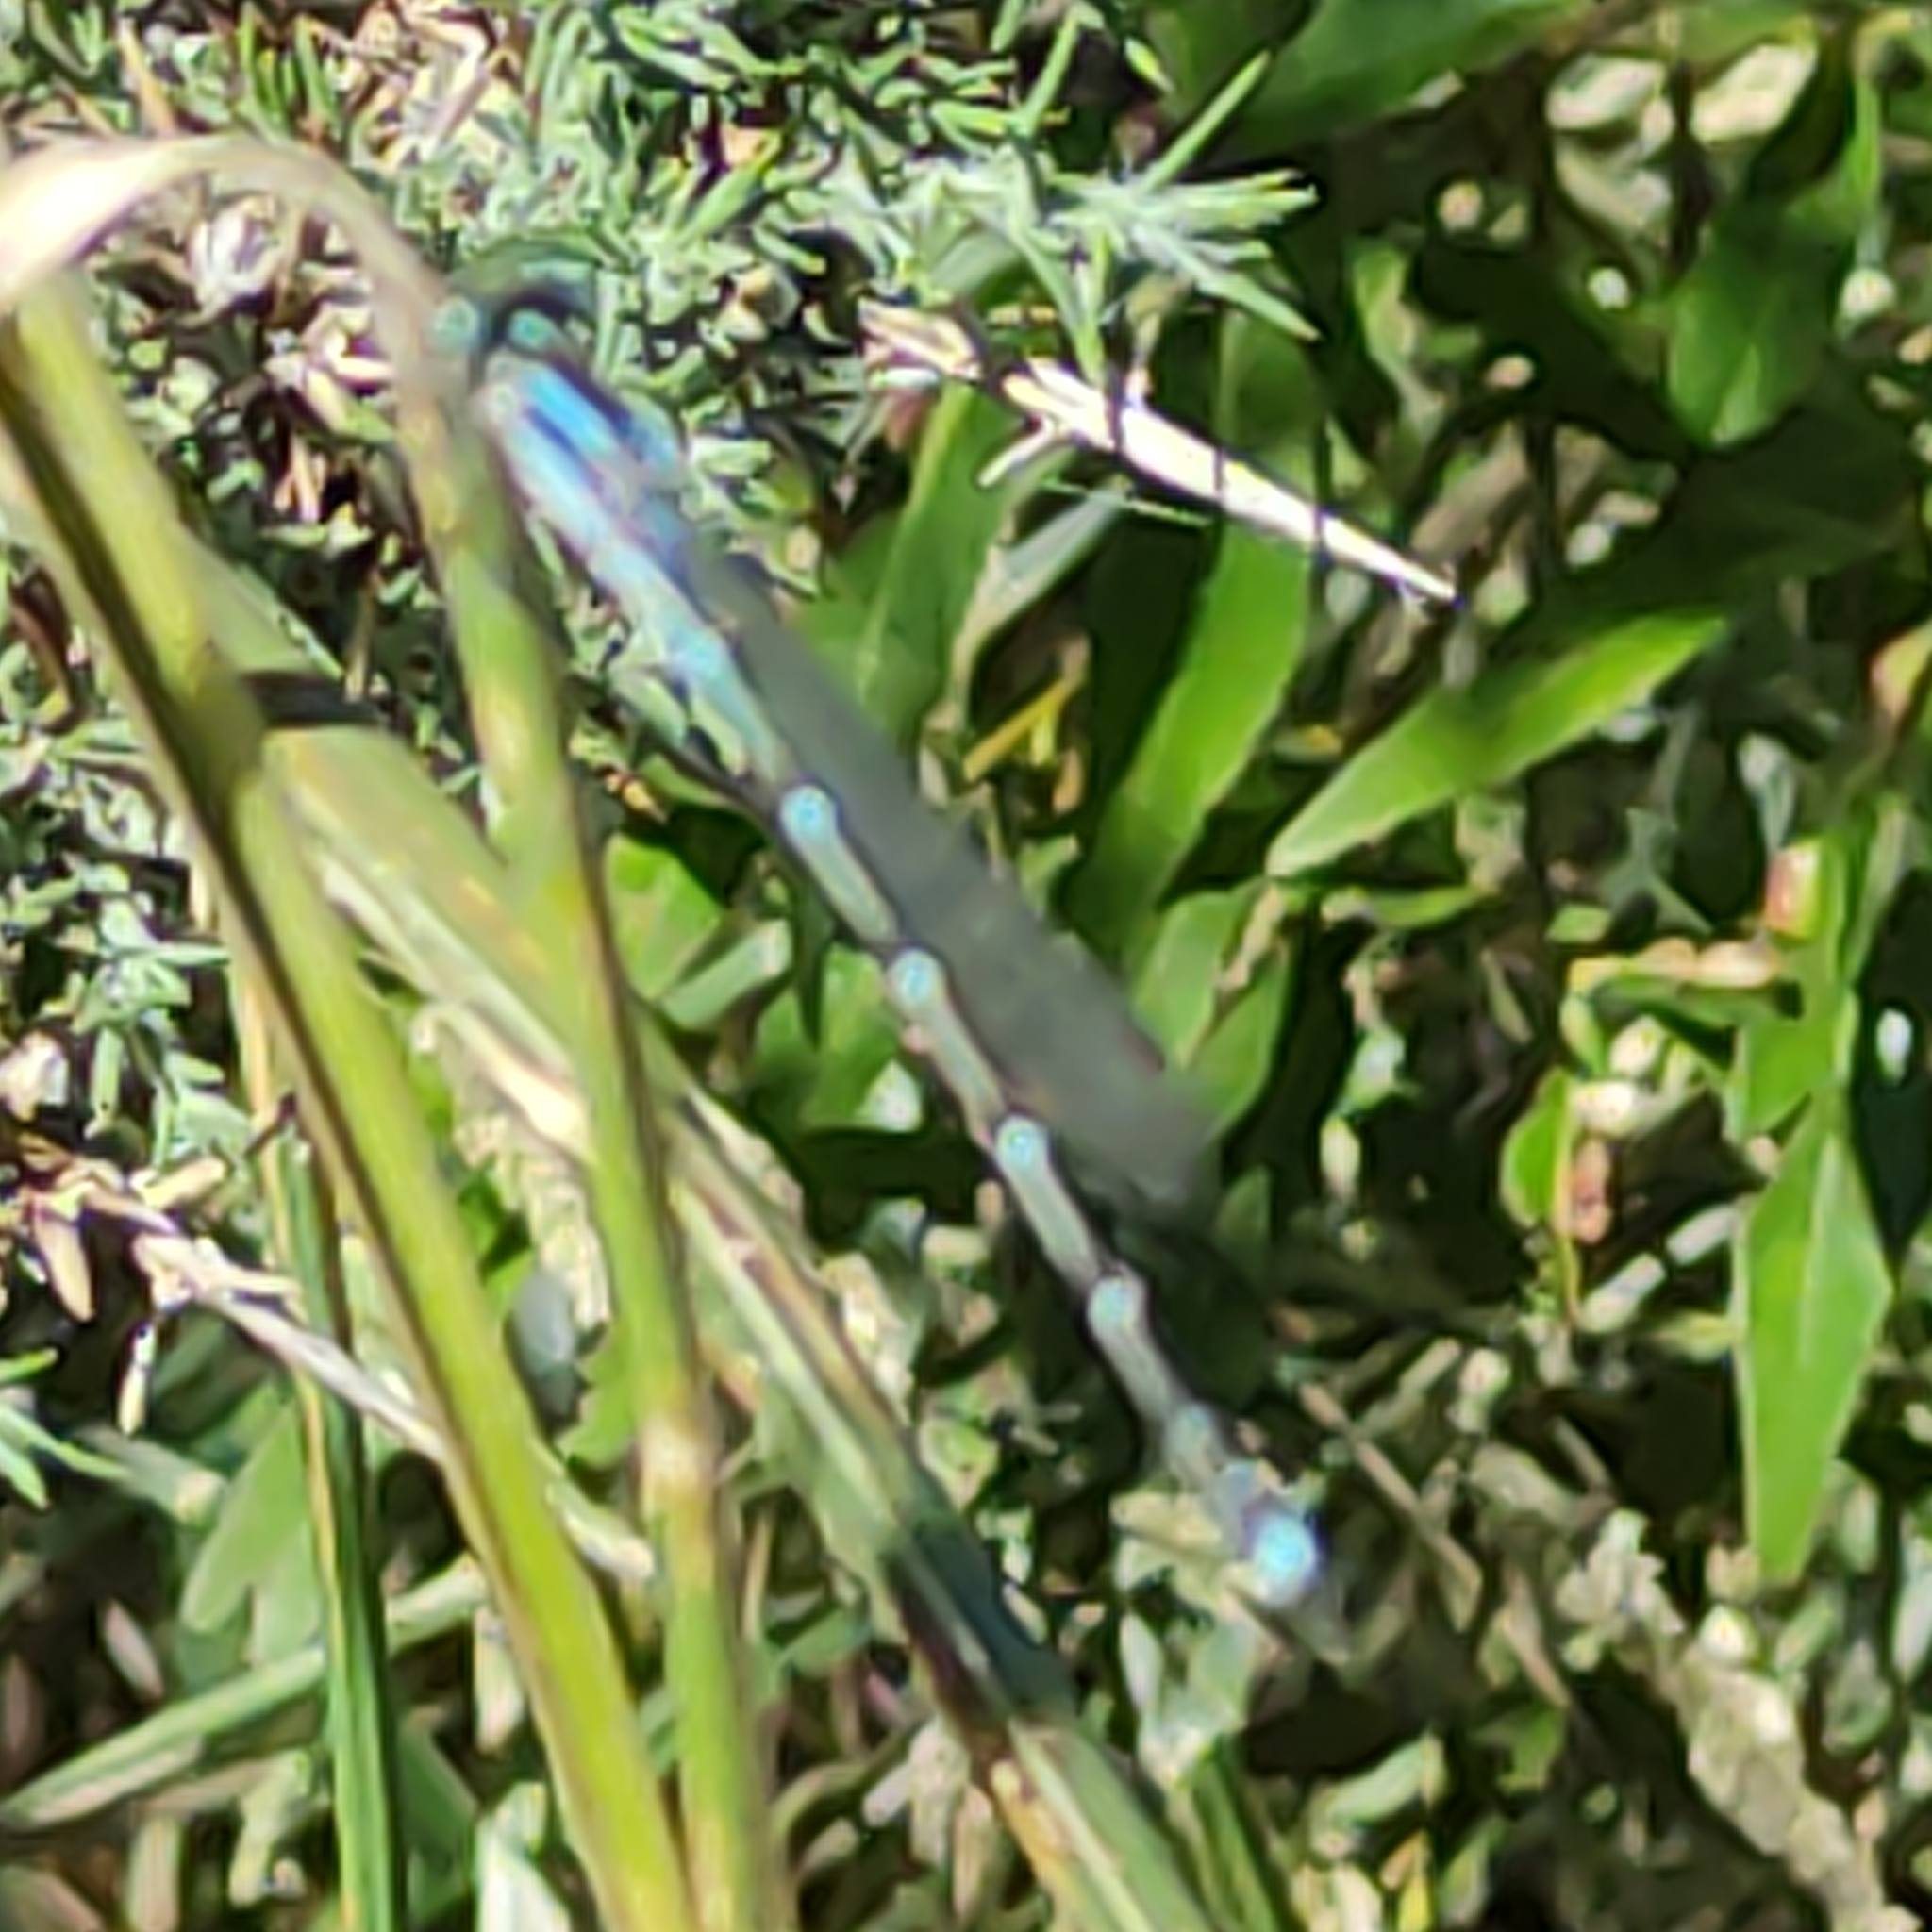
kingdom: Animalia
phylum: Arthropoda
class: Insecta
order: Odonata
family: Lestidae
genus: Austrolestes
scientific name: Austrolestes colensonis
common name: Blue damselfly
